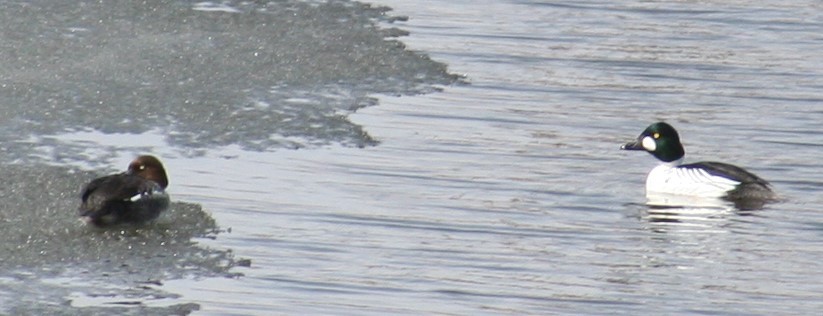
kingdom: Animalia
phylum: Chordata
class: Aves
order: Anseriformes
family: Anatidae
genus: Bucephala
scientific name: Bucephala clangula
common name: Common goldeneye
